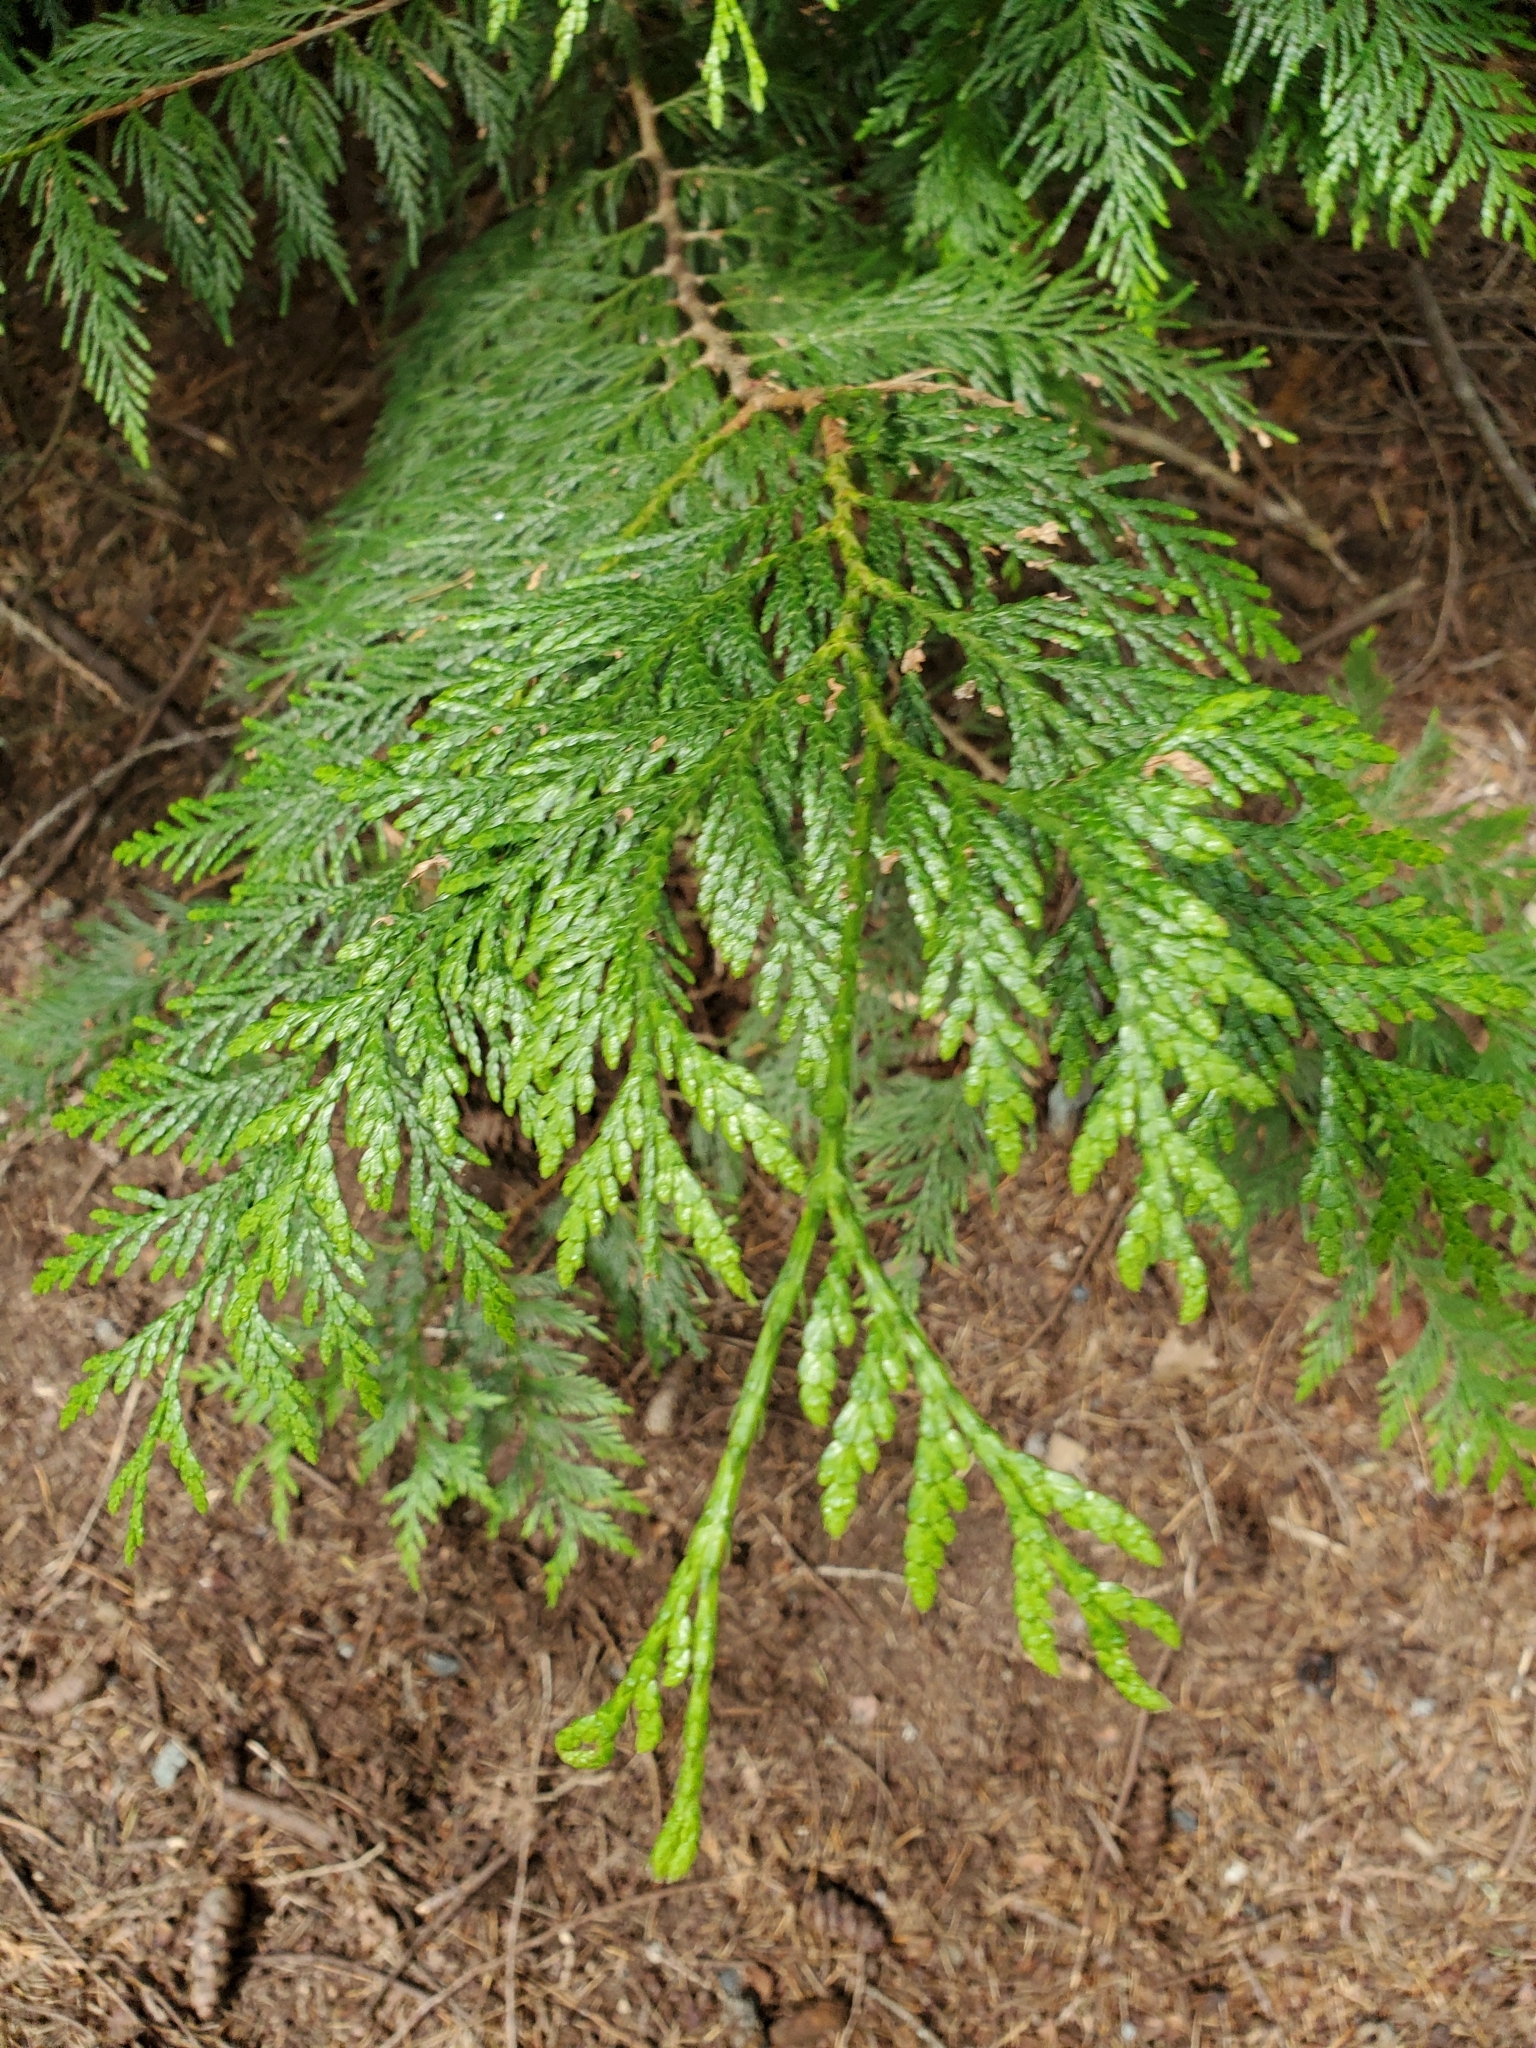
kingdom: Plantae
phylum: Tracheophyta
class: Pinopsida
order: Pinales
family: Cupressaceae
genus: Thuja
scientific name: Thuja plicata
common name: Western red-cedar
